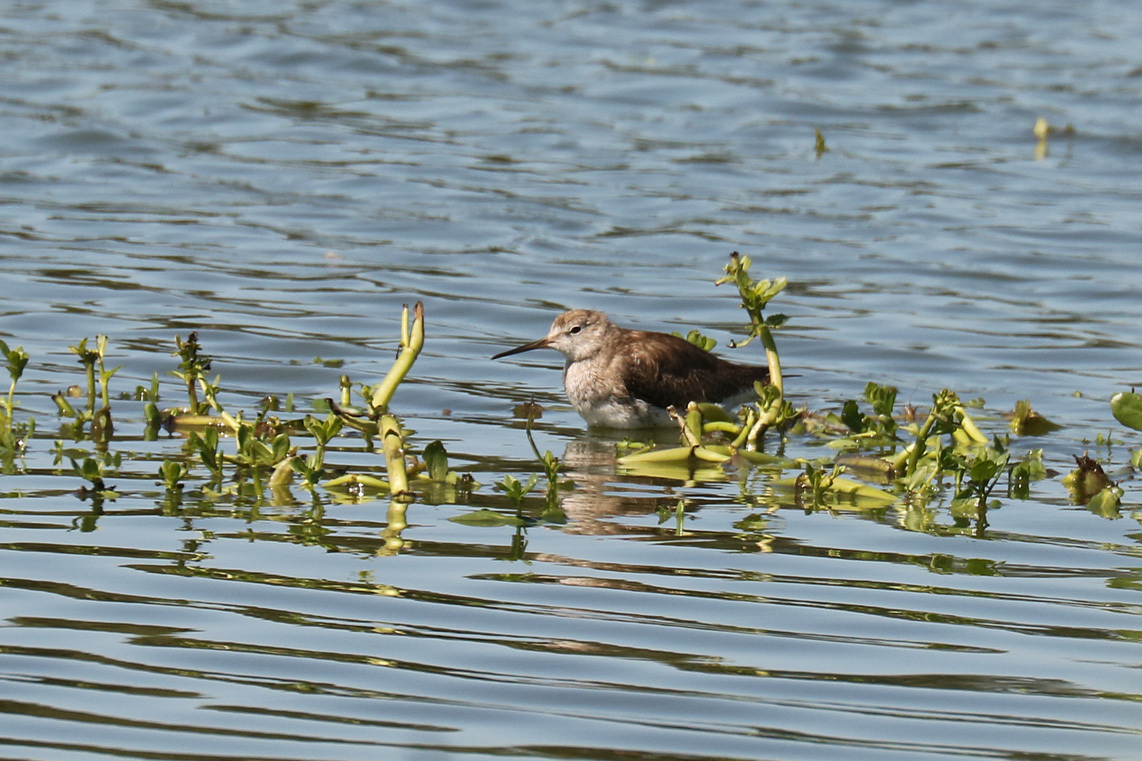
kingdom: Animalia
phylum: Chordata
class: Aves
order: Charadriiformes
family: Scolopacidae
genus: Tringa
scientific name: Tringa flavipes
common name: Lesser yellowlegs
